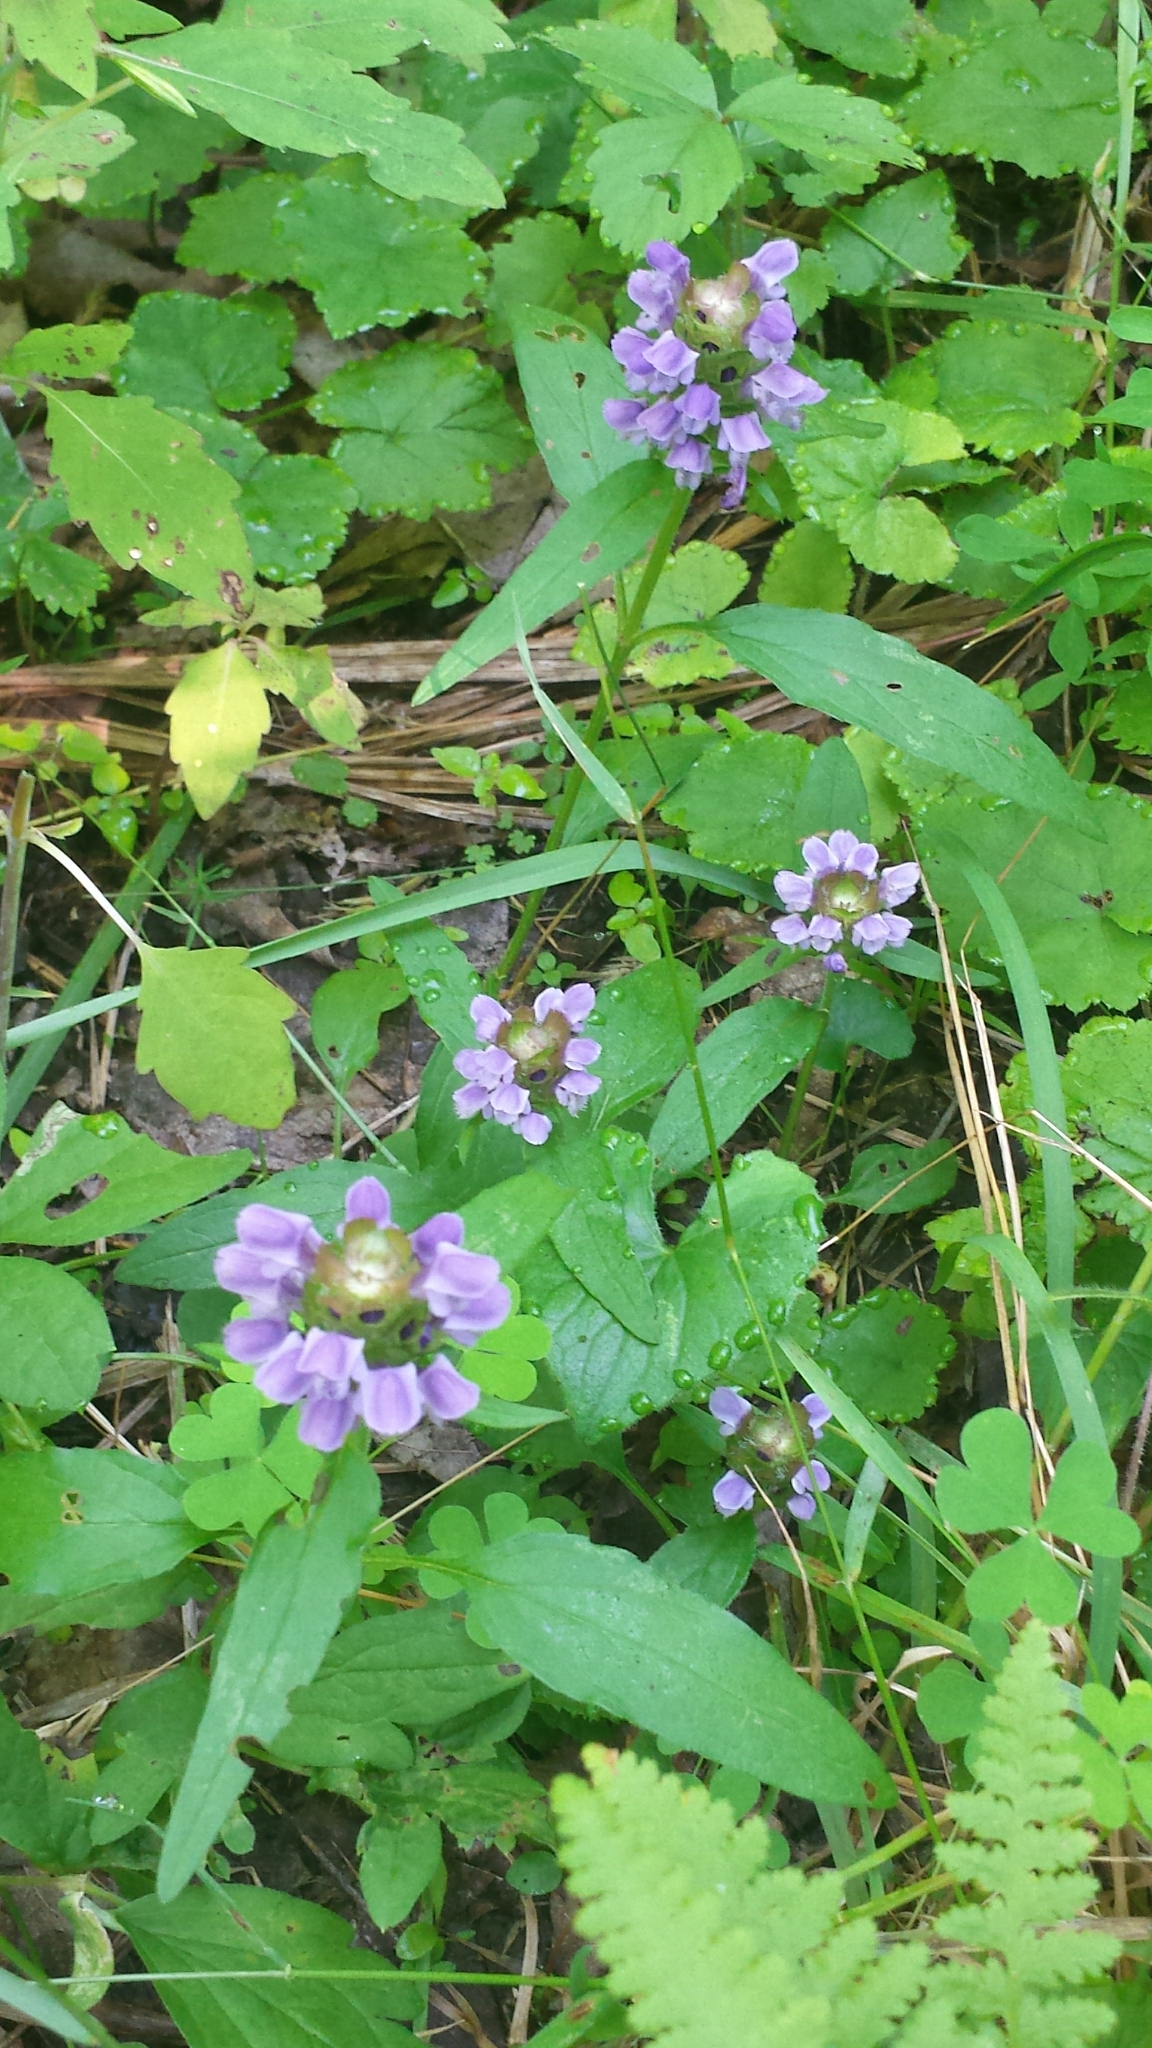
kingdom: Plantae
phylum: Tracheophyta
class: Magnoliopsida
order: Lamiales
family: Lamiaceae
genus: Prunella
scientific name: Prunella vulgaris
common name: Heal-all
